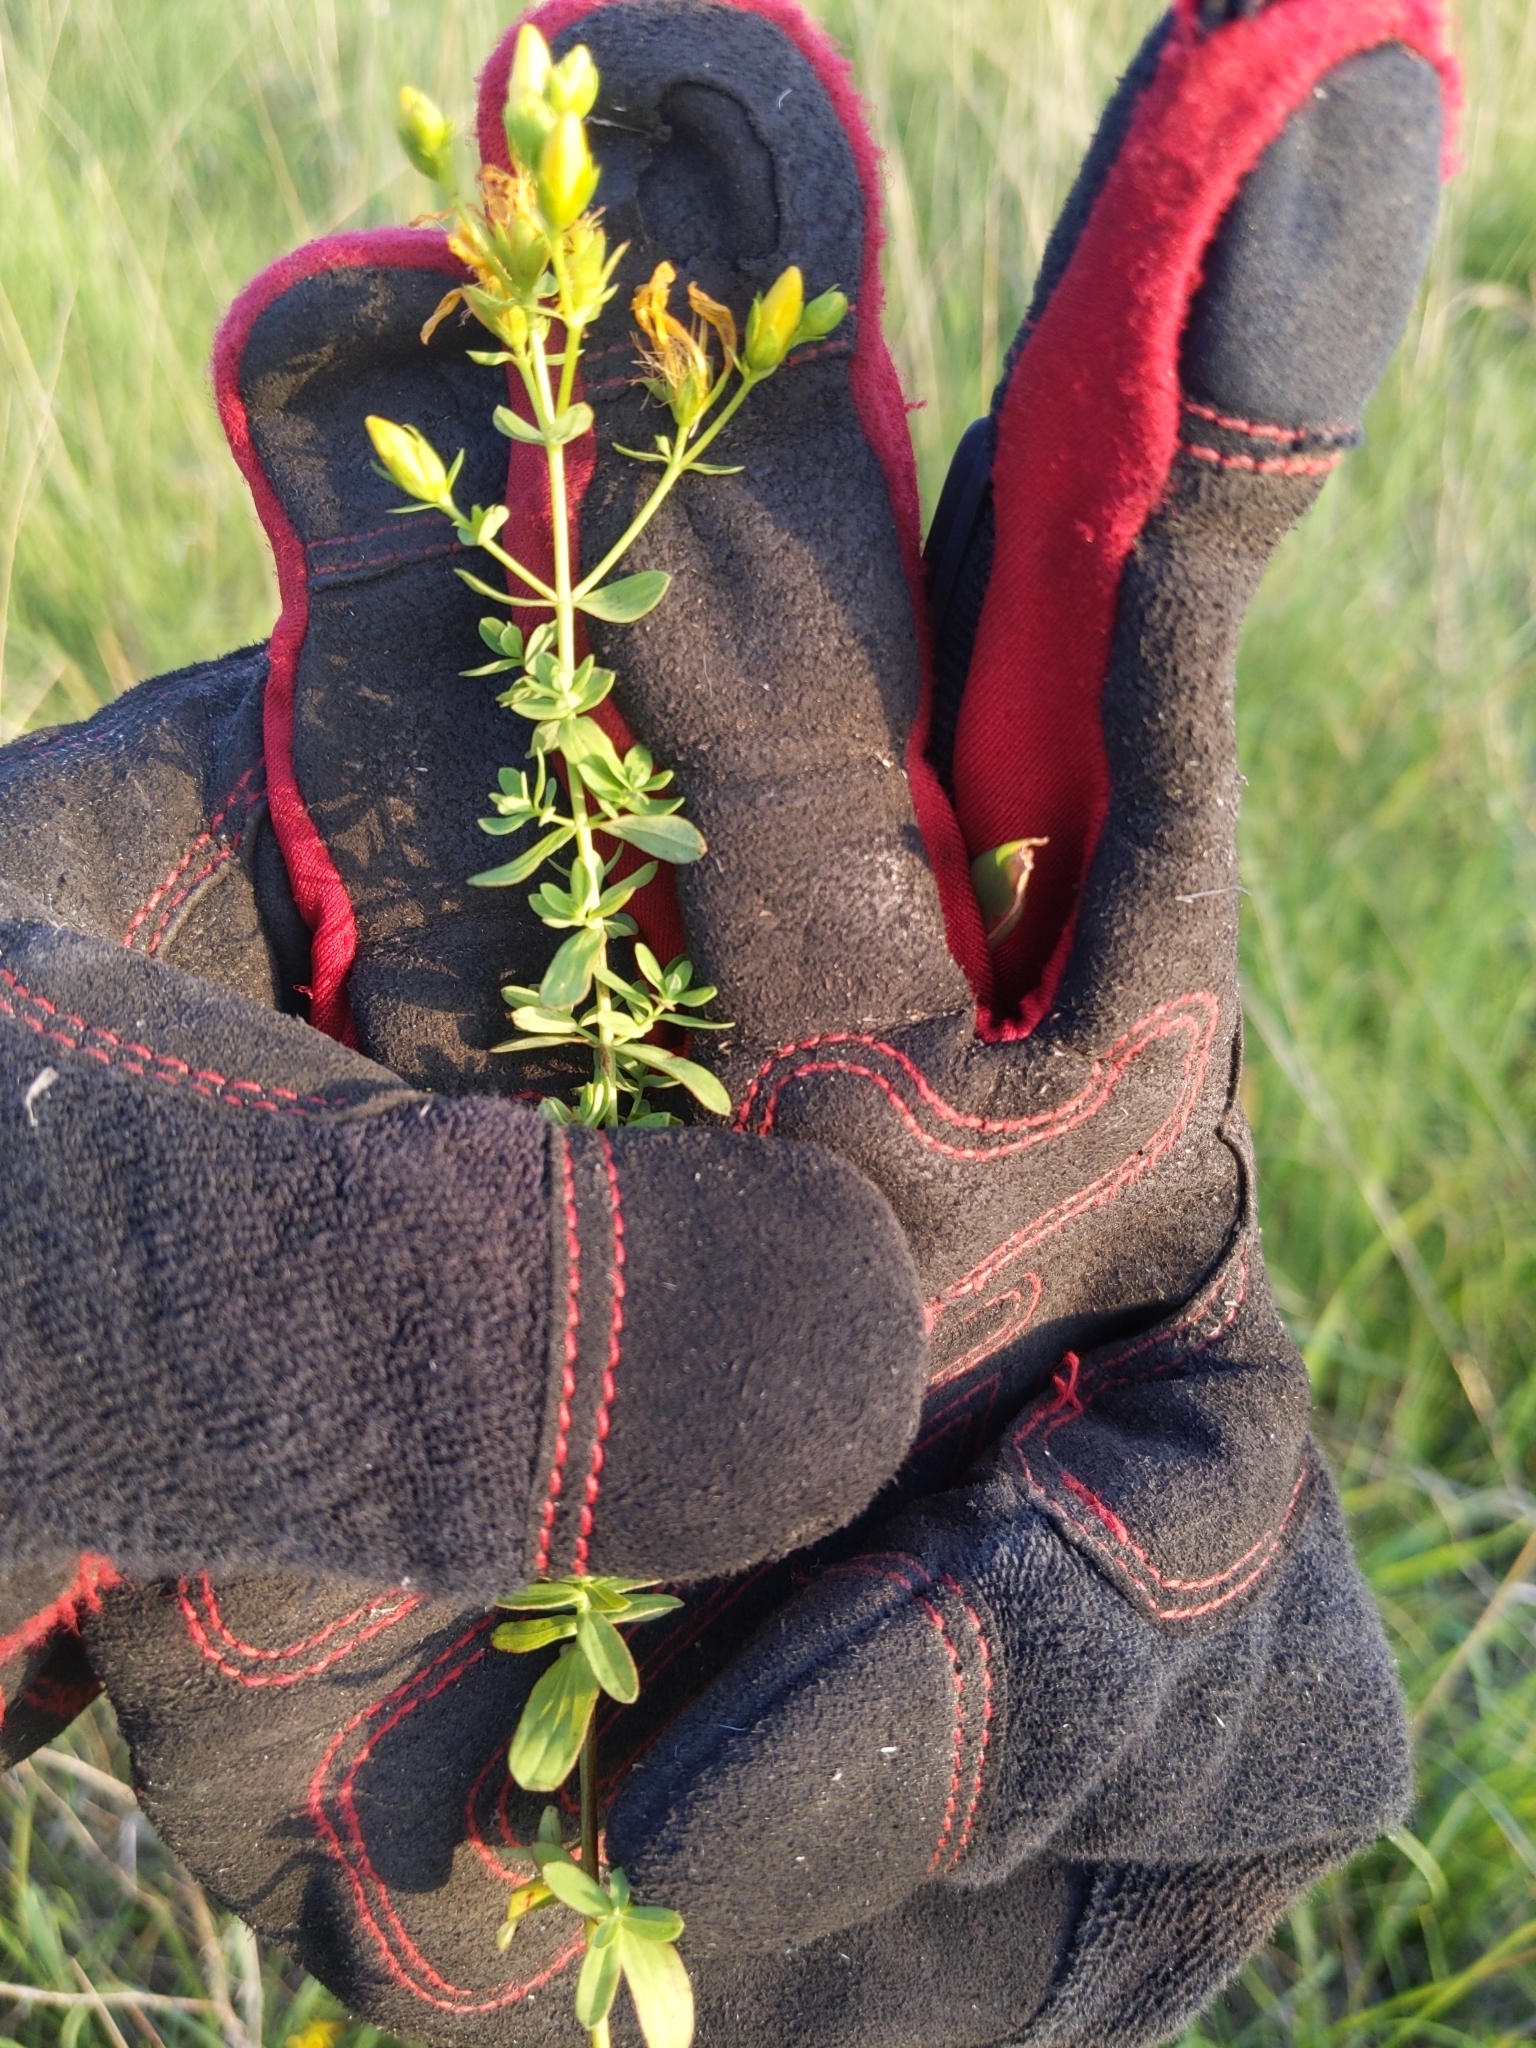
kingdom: Plantae
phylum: Tracheophyta
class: Magnoliopsida
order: Malpighiales
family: Hypericaceae
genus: Hypericum
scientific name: Hypericum perforatum
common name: Common st. johnswort
